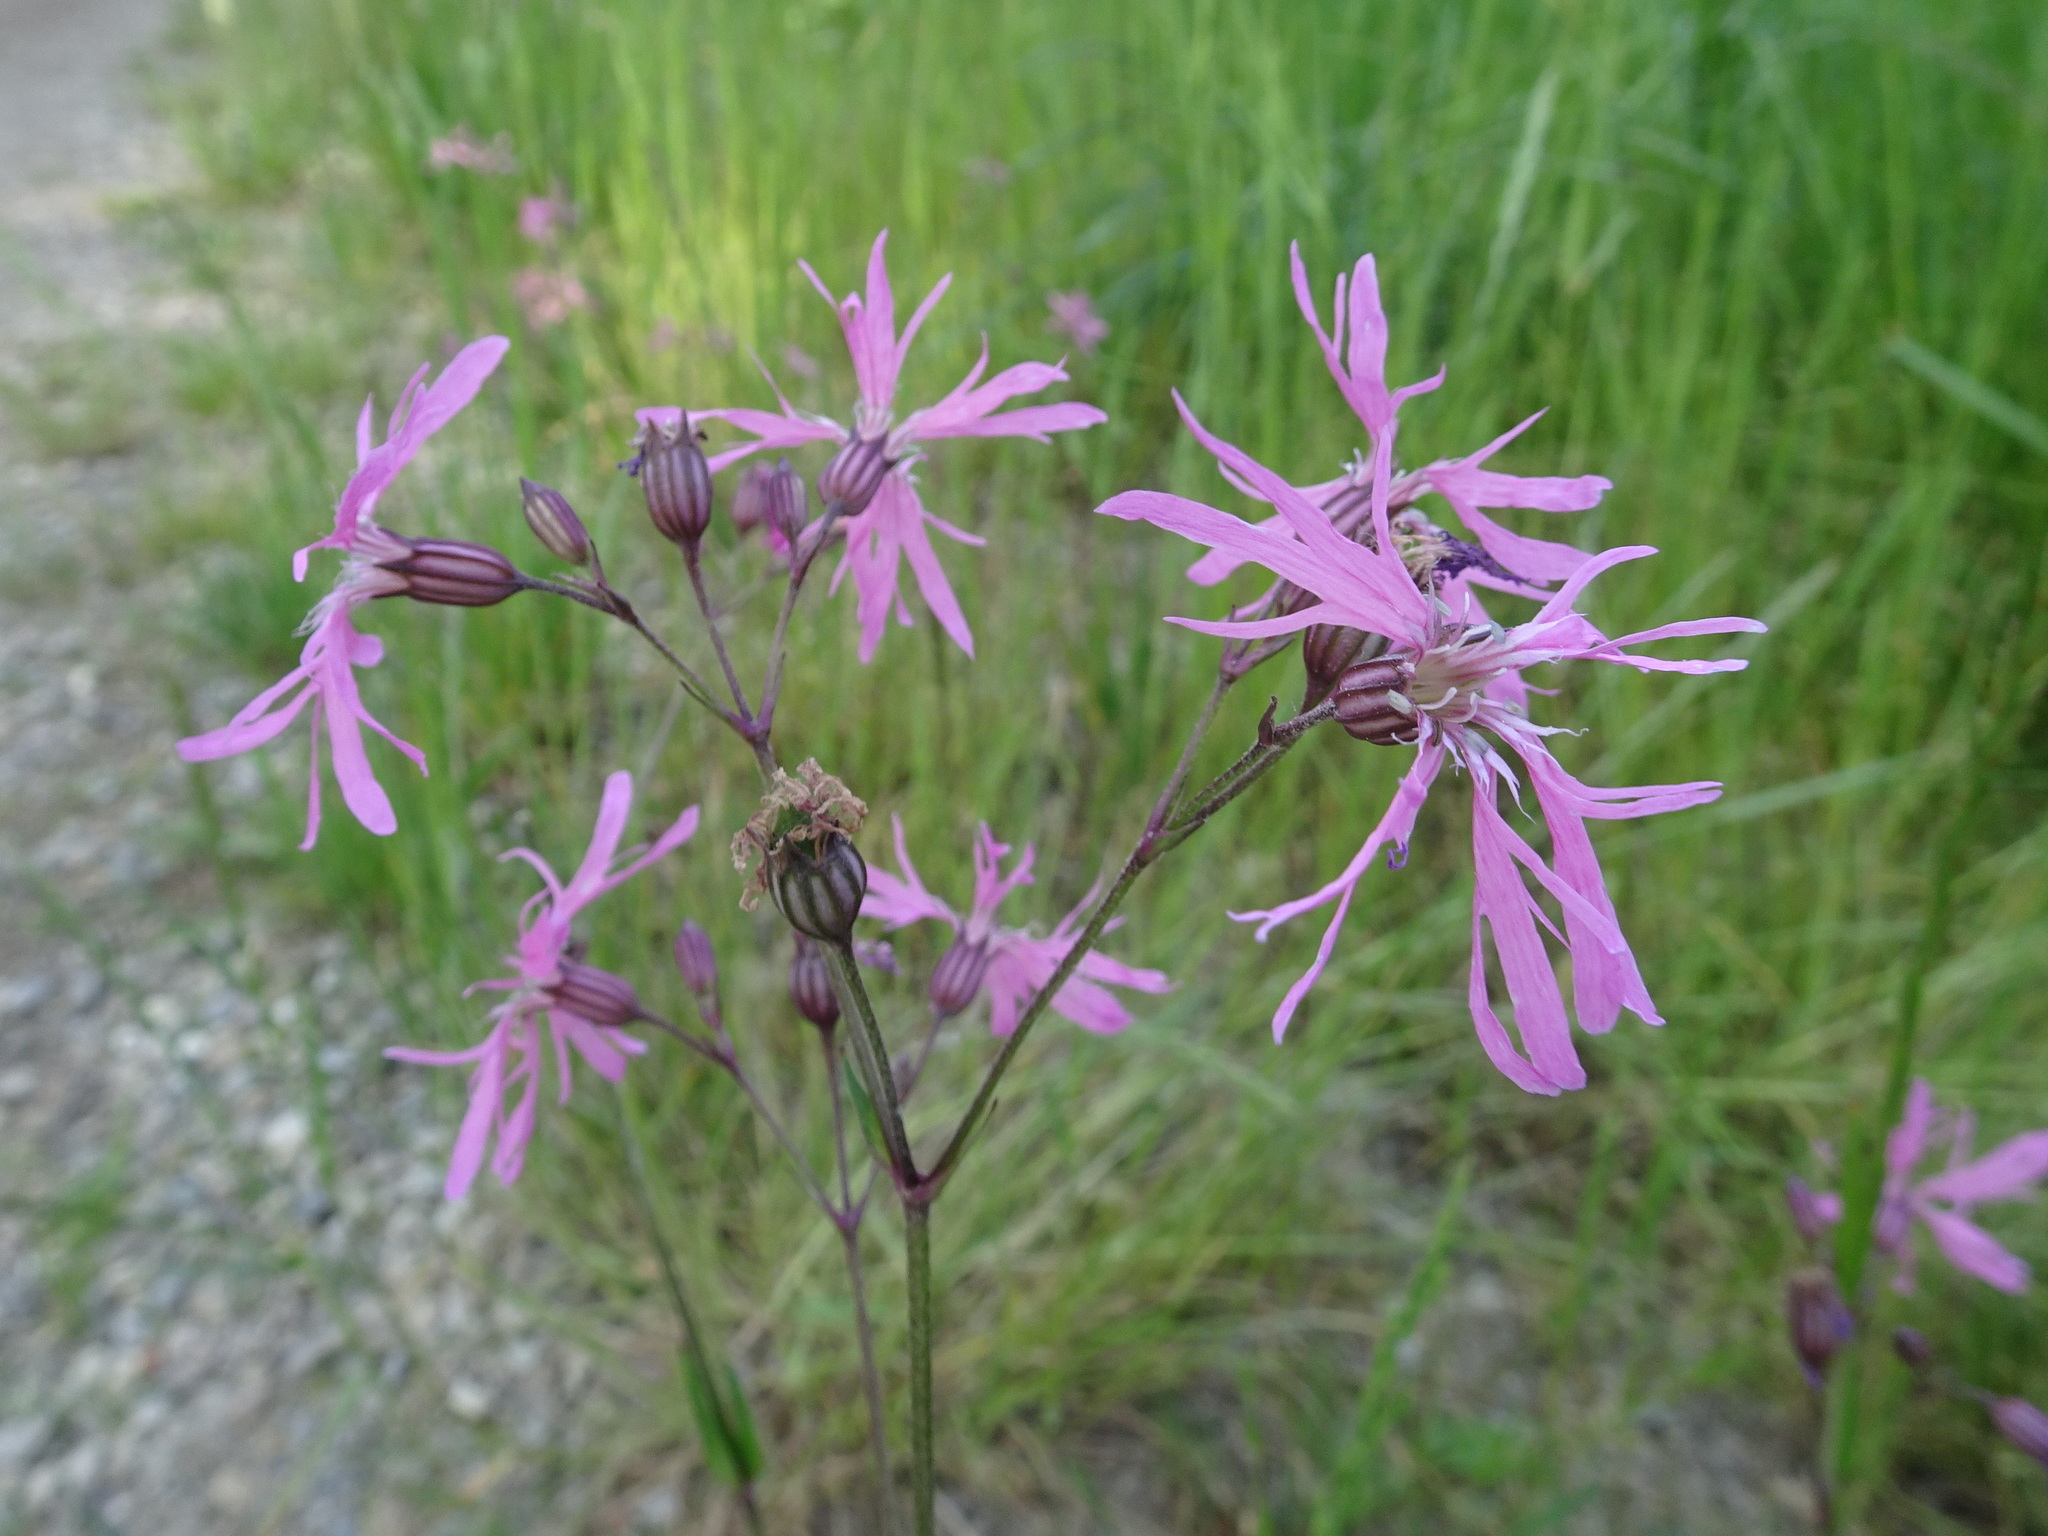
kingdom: Plantae
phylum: Tracheophyta
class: Magnoliopsida
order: Caryophyllales
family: Caryophyllaceae
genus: Silene
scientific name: Silene flos-cuculi
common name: Ragged-robin
